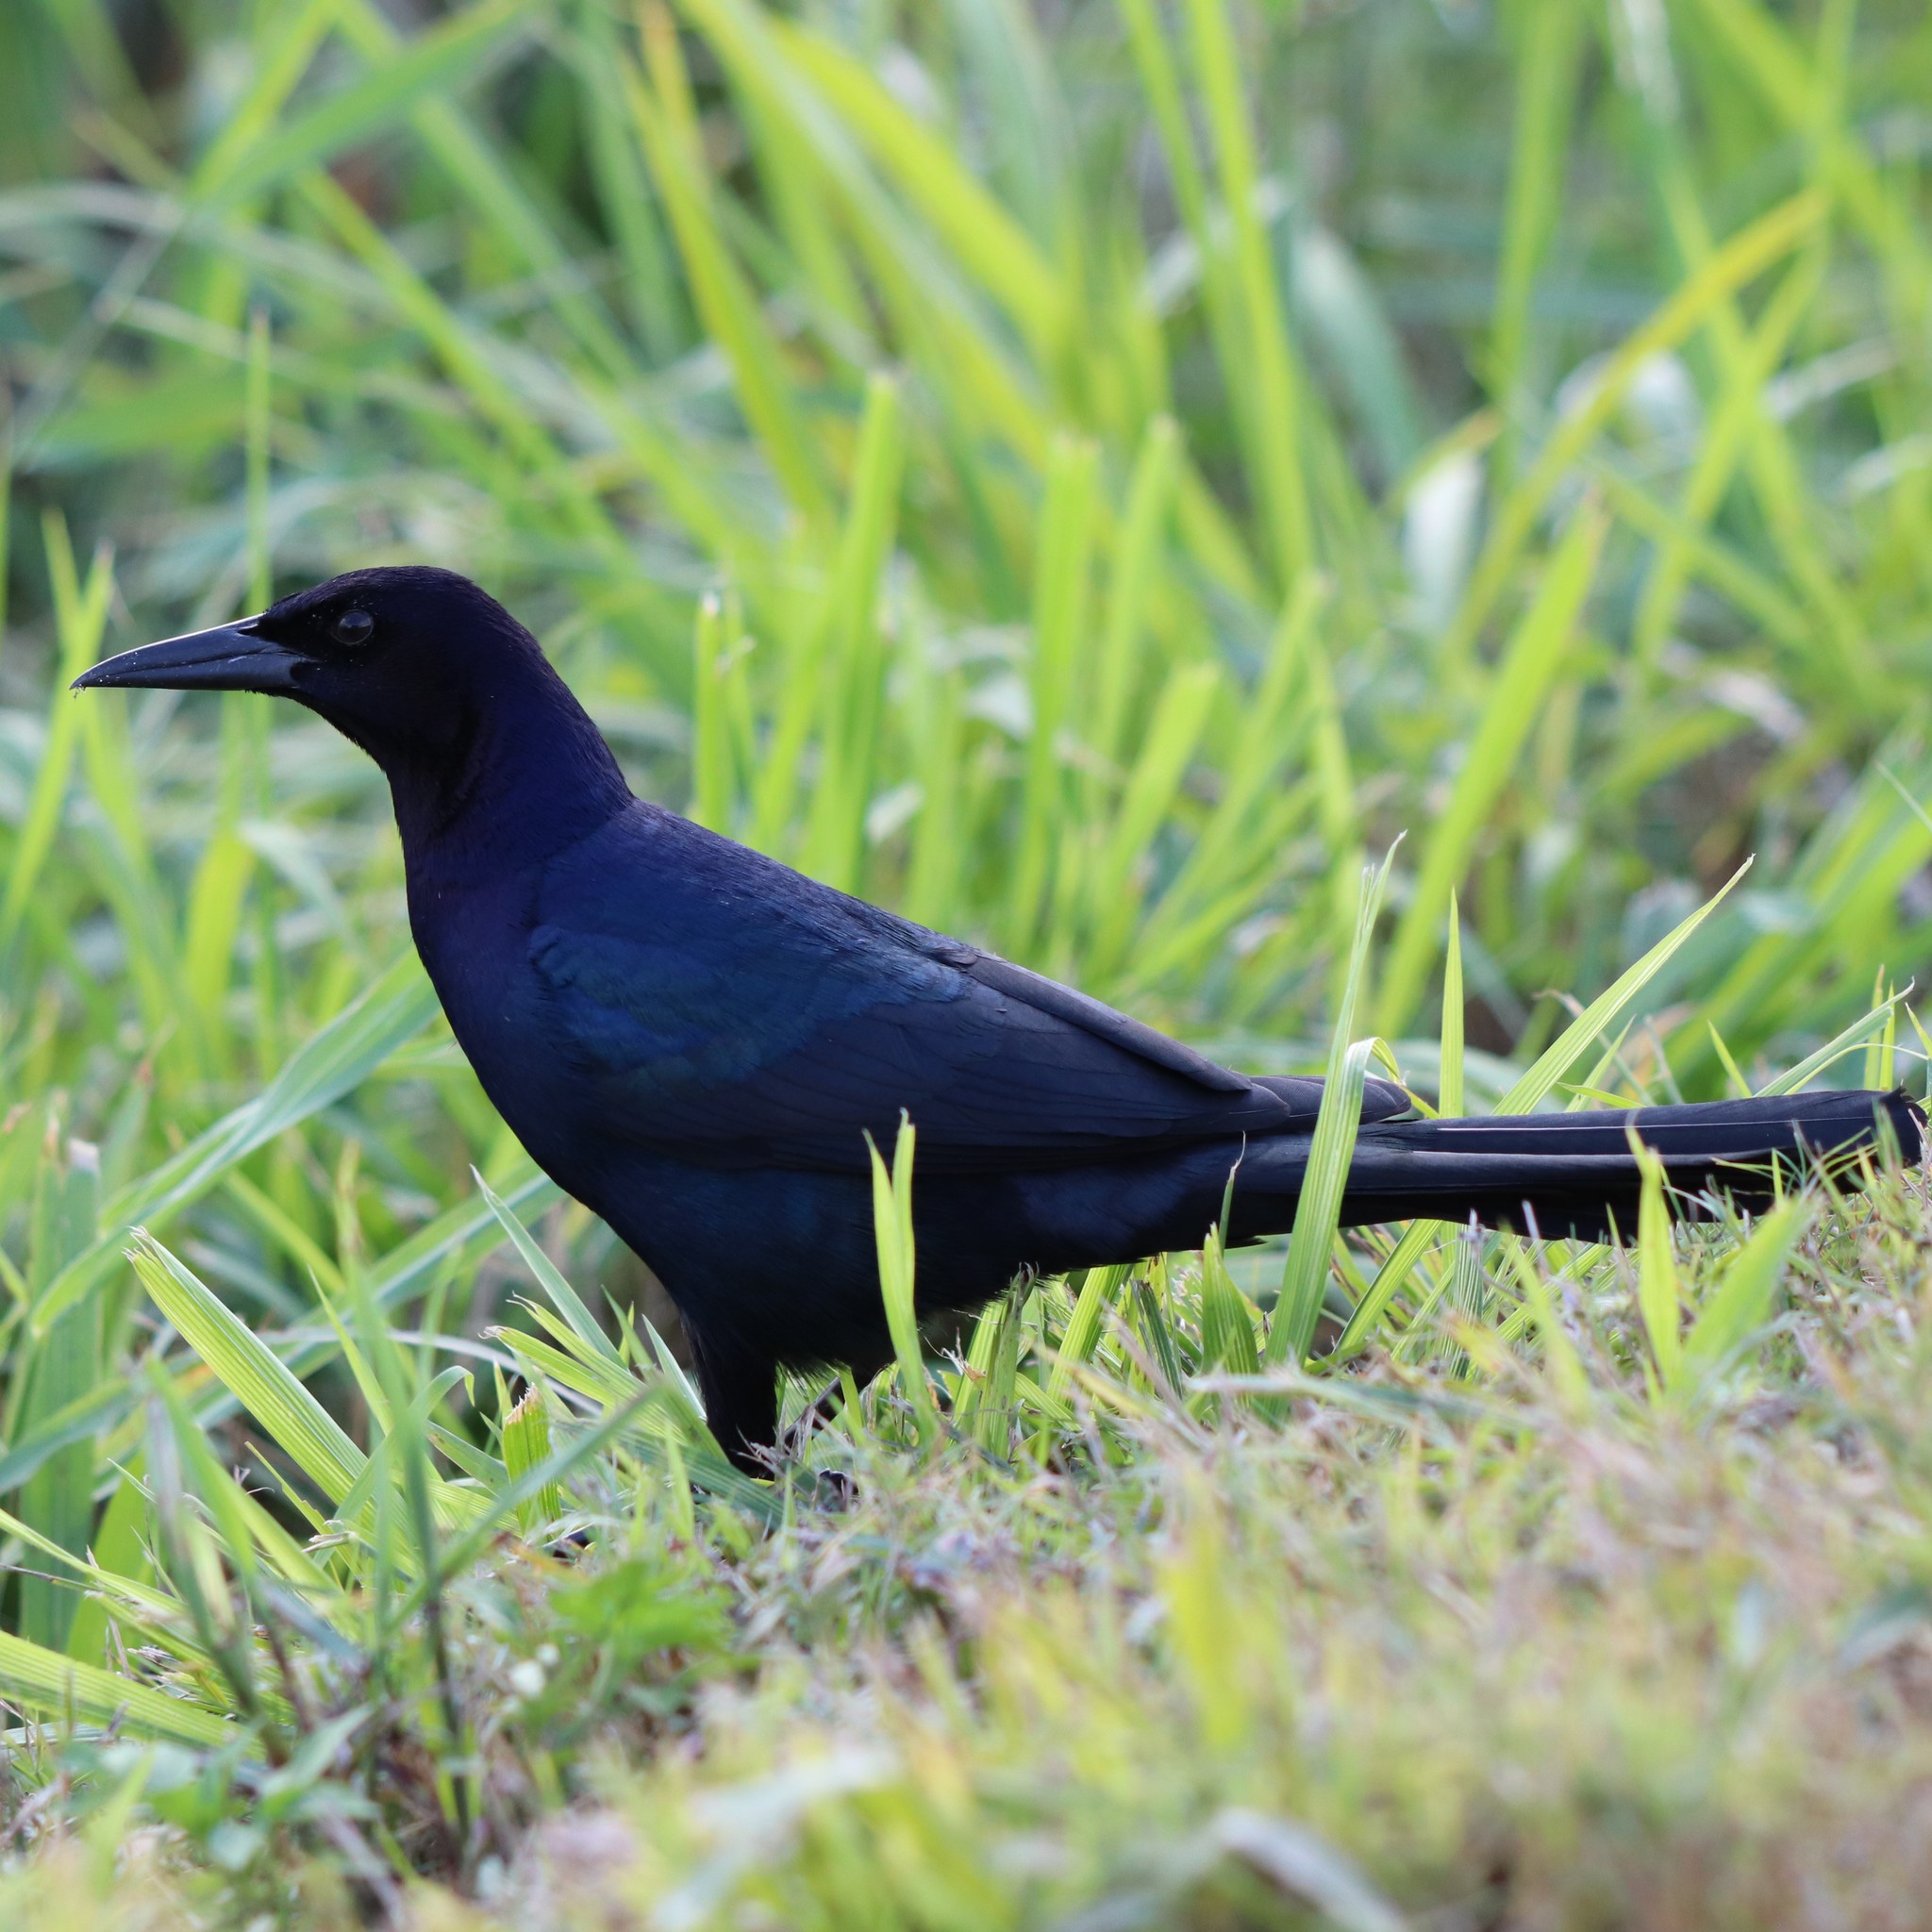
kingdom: Animalia
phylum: Chordata
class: Aves
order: Passeriformes
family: Icteridae
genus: Quiscalus
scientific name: Quiscalus major
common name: Boat-tailed grackle
